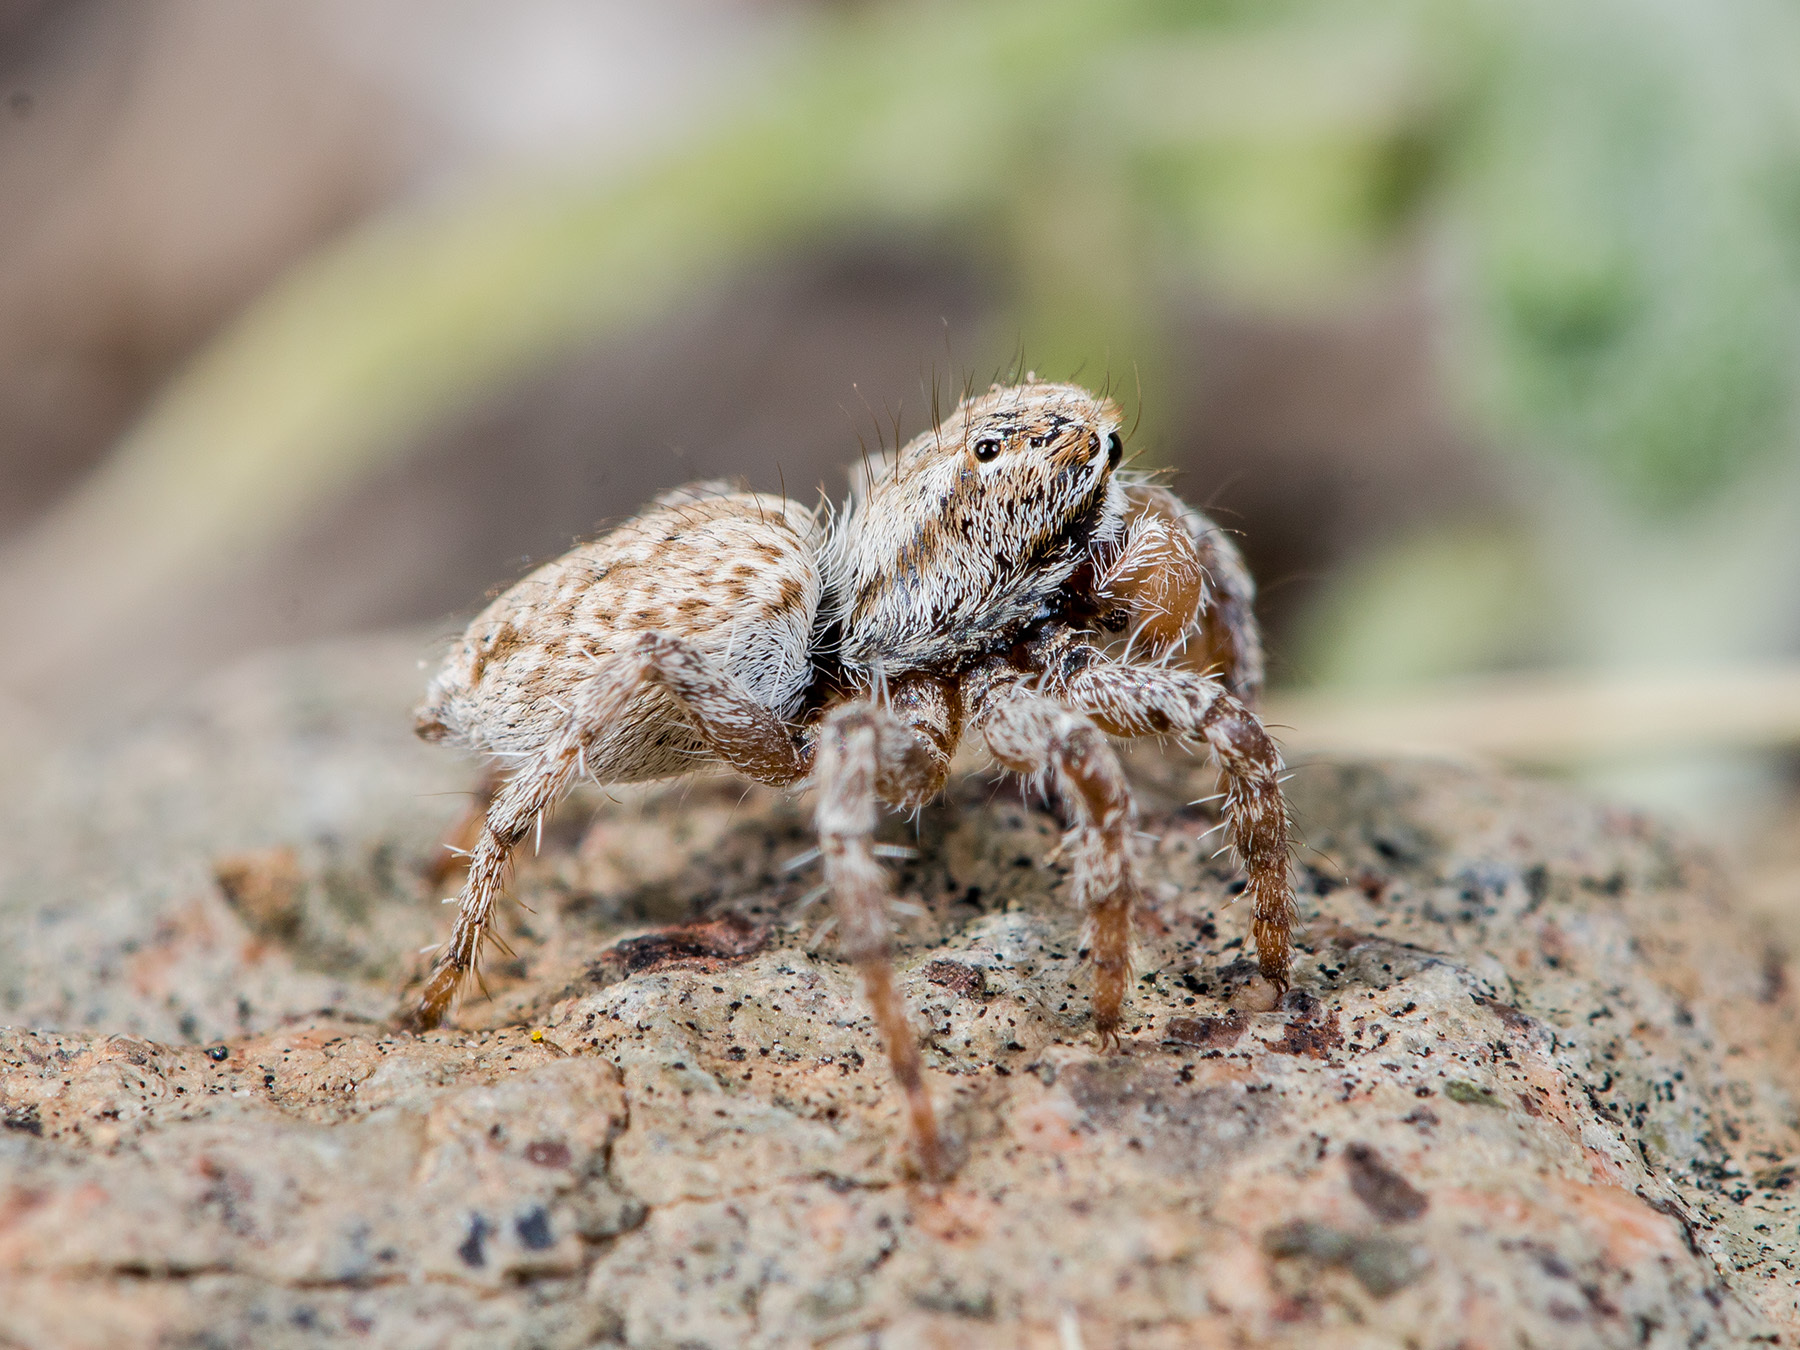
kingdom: Animalia
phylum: Arthropoda
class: Arachnida
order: Araneae
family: Salticidae
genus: Rafalus
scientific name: Rafalus variegatus
